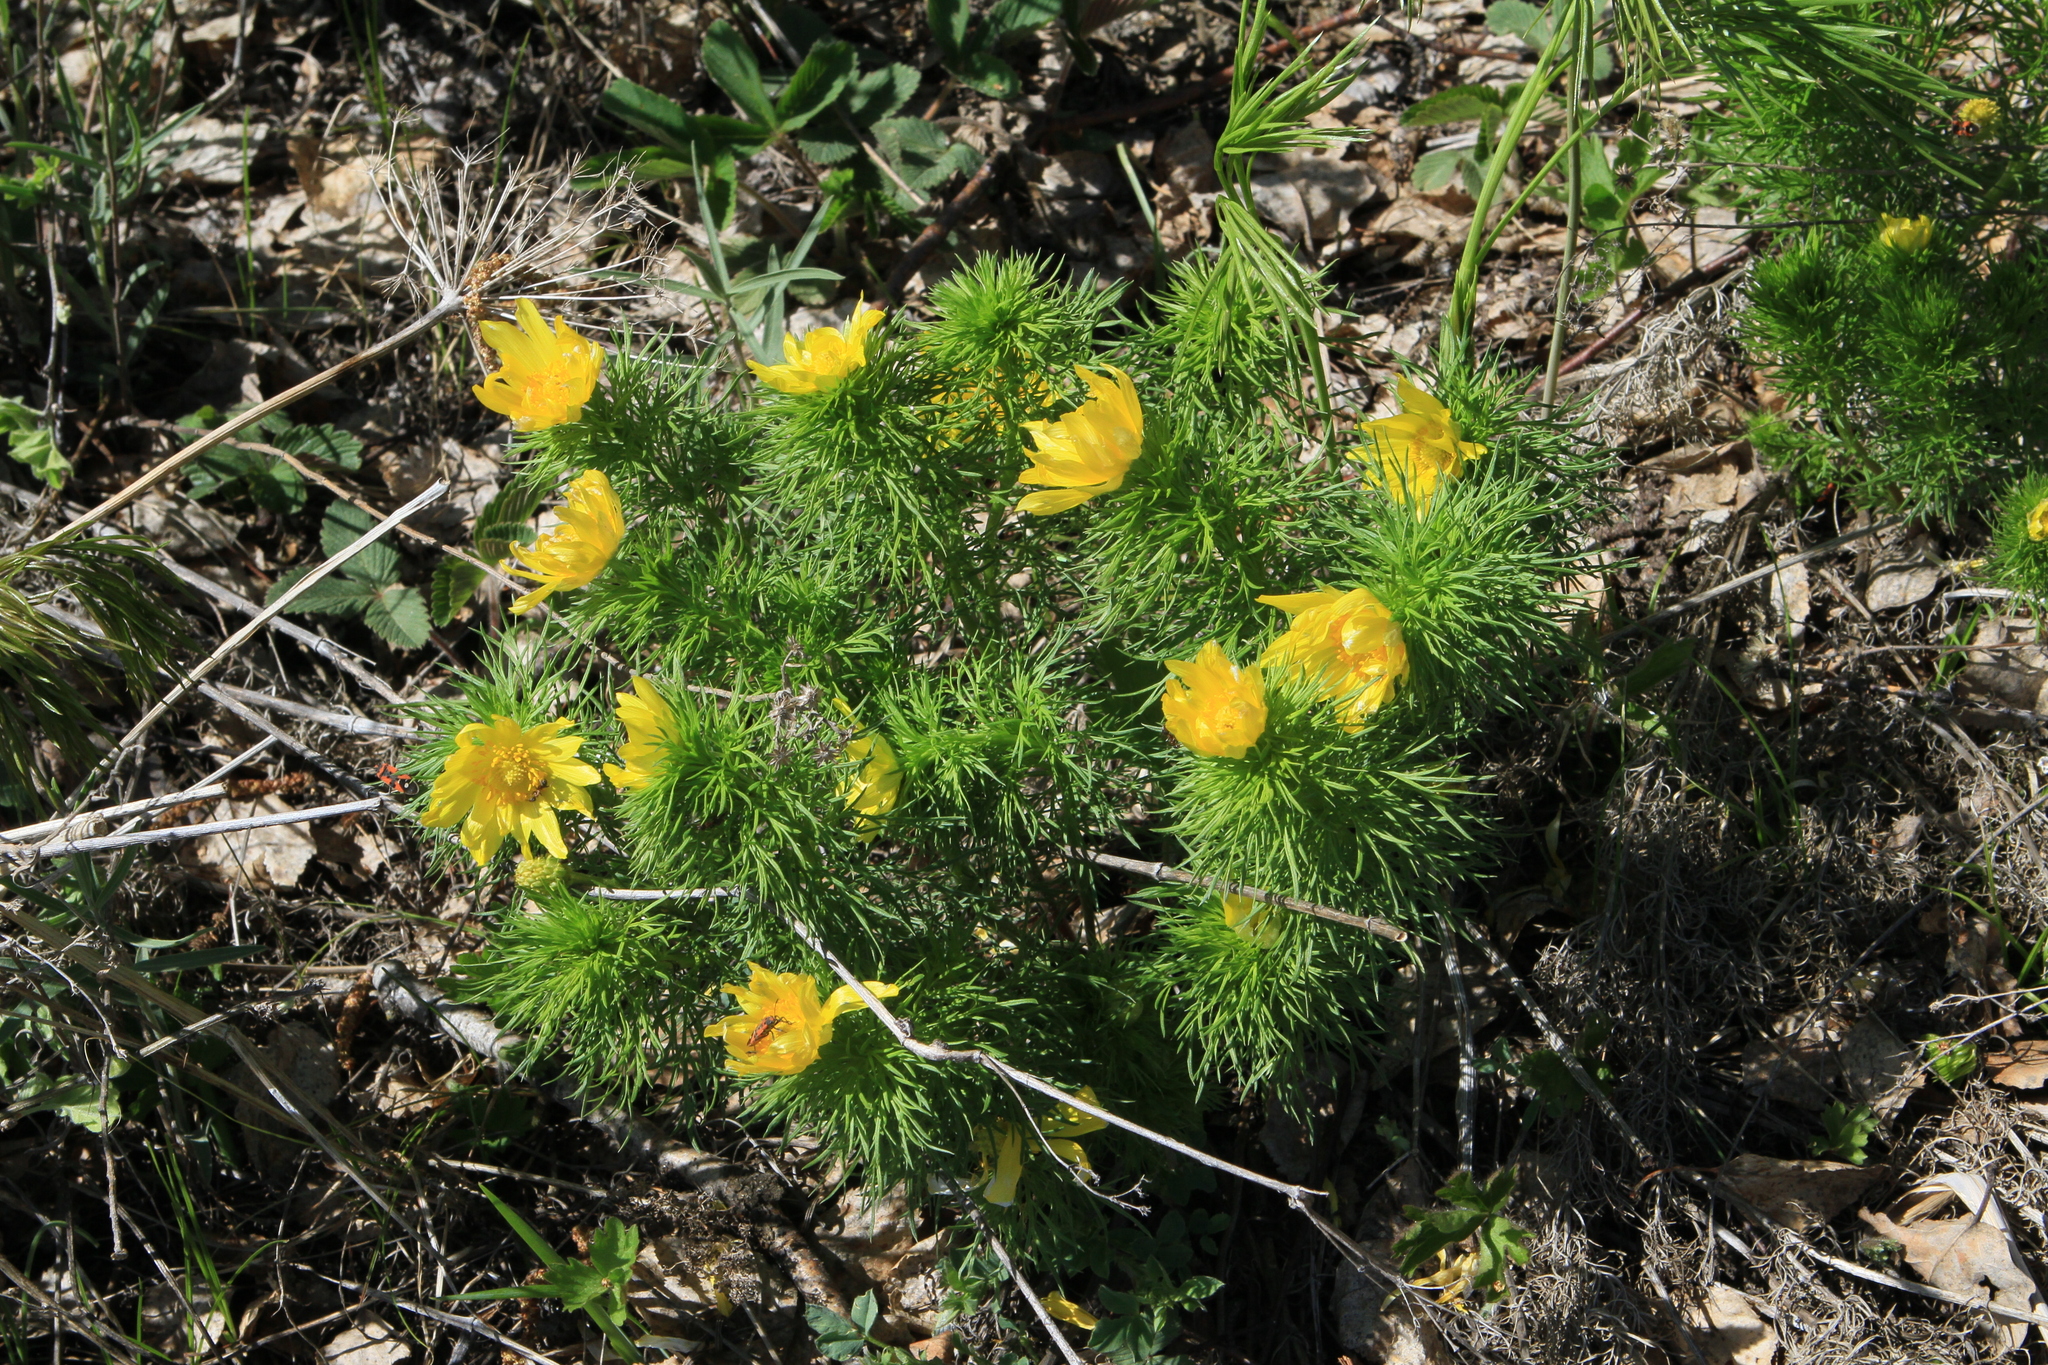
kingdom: Plantae
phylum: Tracheophyta
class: Magnoliopsida
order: Ranunculales
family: Ranunculaceae
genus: Adonis
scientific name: Adonis vernalis
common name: Yellow pheasants-eye
